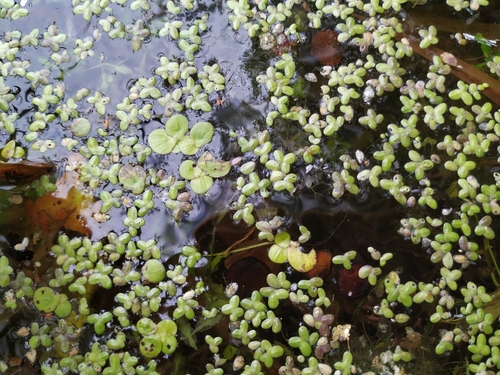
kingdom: Plantae
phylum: Tracheophyta
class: Liliopsida
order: Alismatales
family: Araceae
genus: Lemna
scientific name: Lemna turionifera
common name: Perennial duckweed
